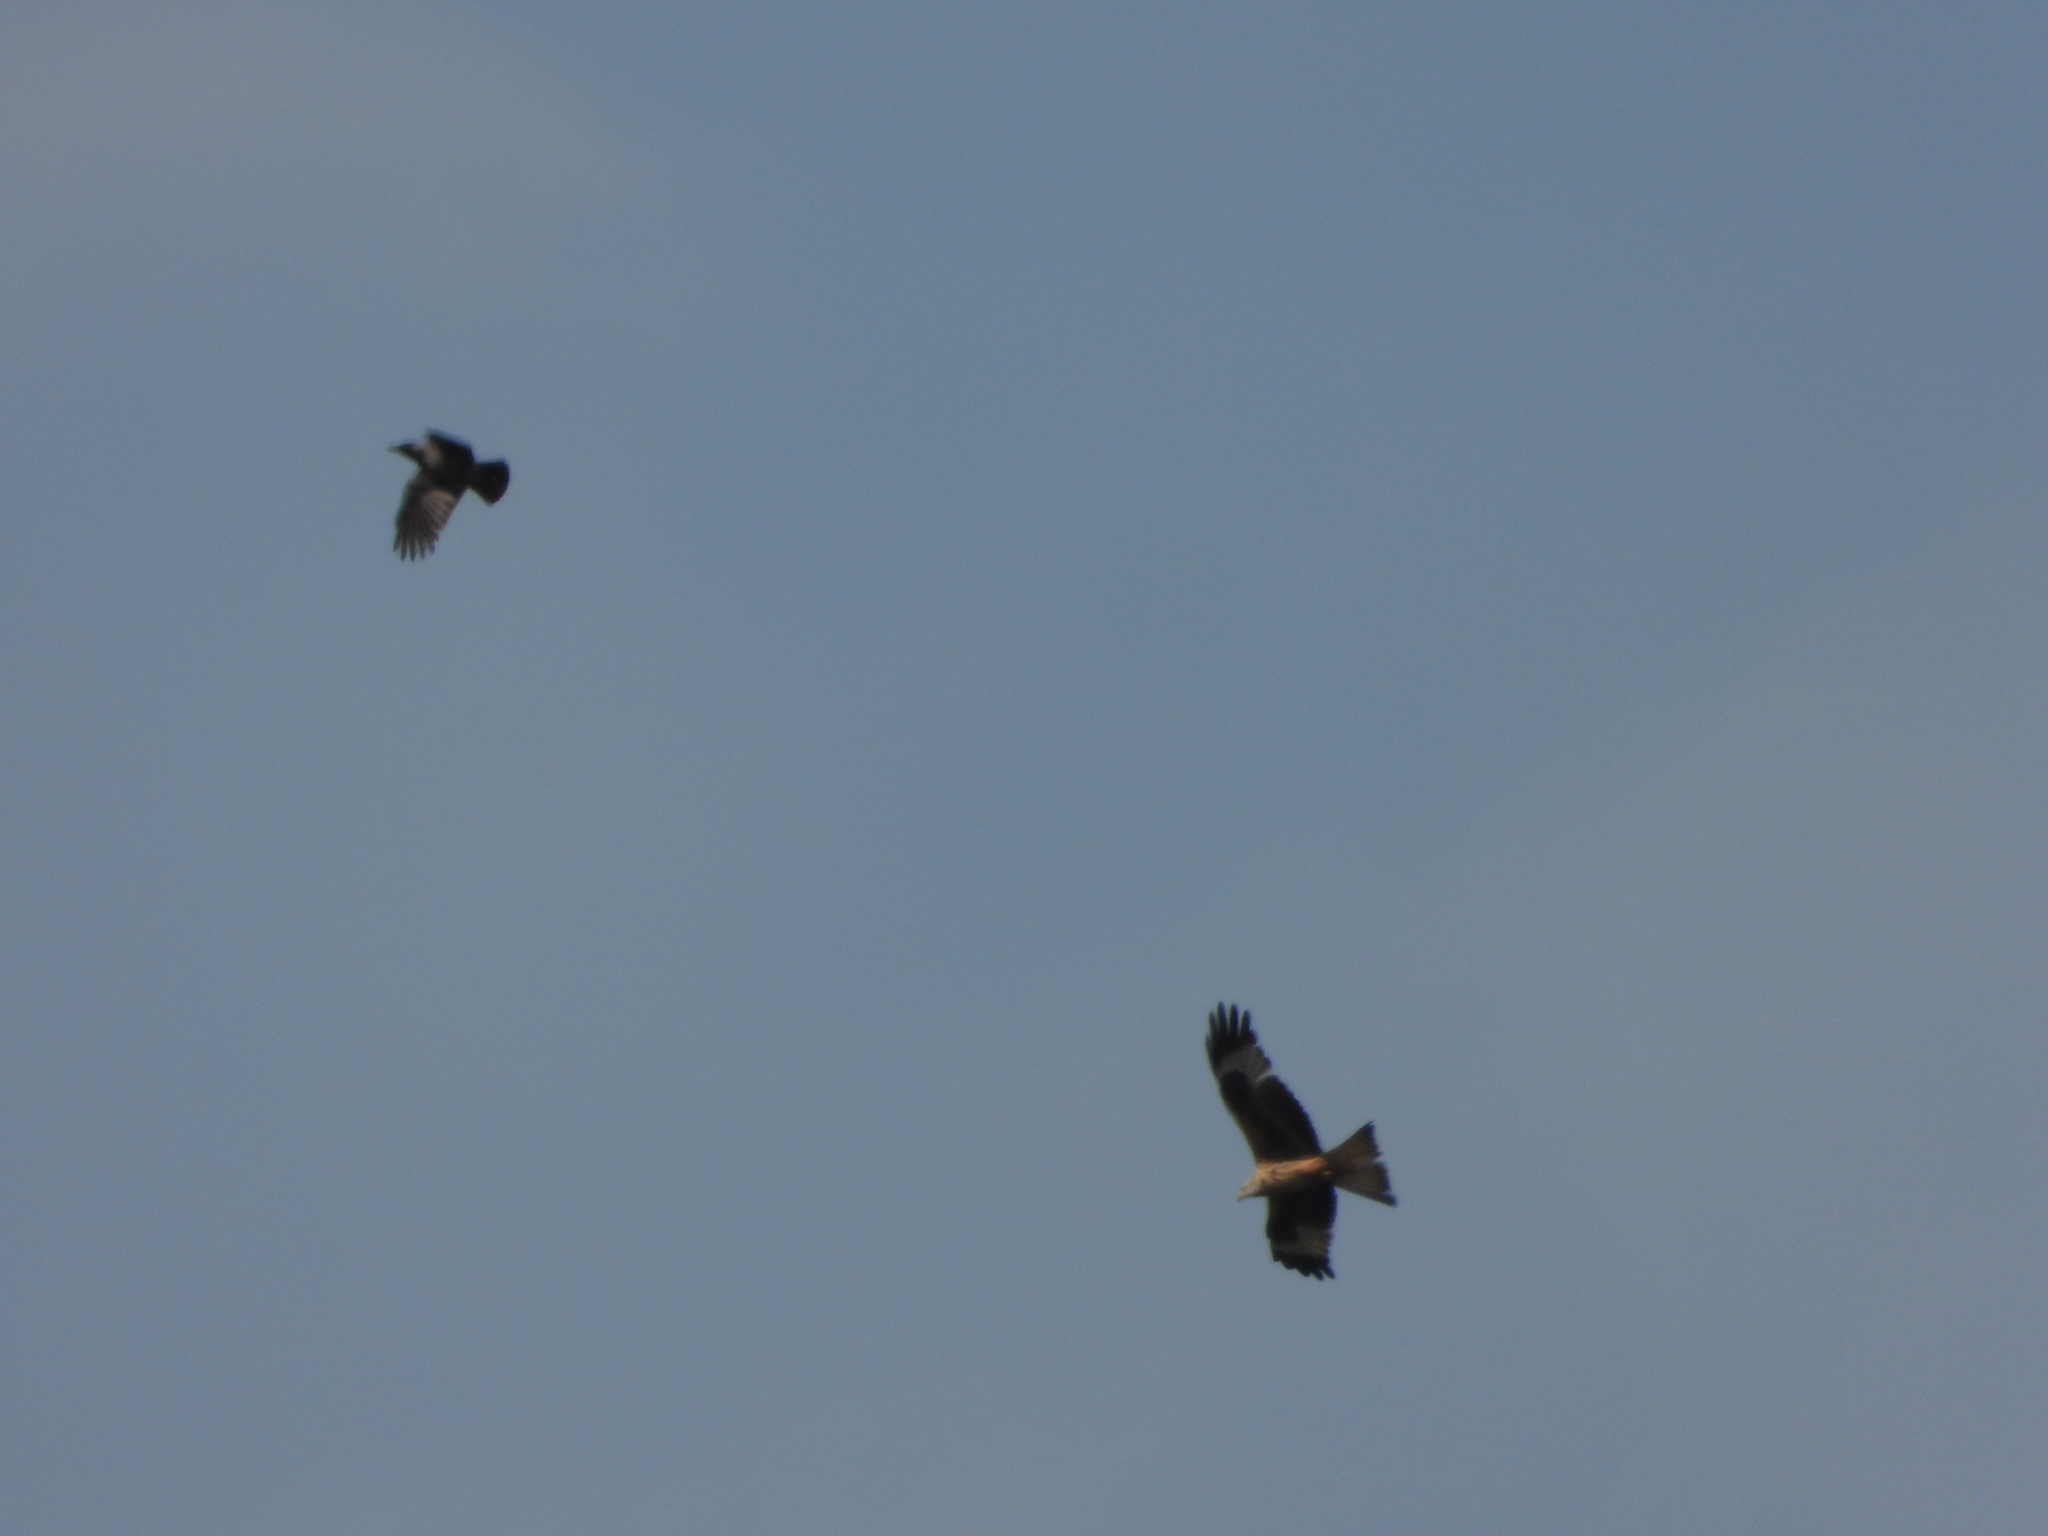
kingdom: Animalia
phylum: Chordata
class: Aves
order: Accipitriformes
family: Accipitridae
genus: Milvus
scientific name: Milvus milvus
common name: Red kite
